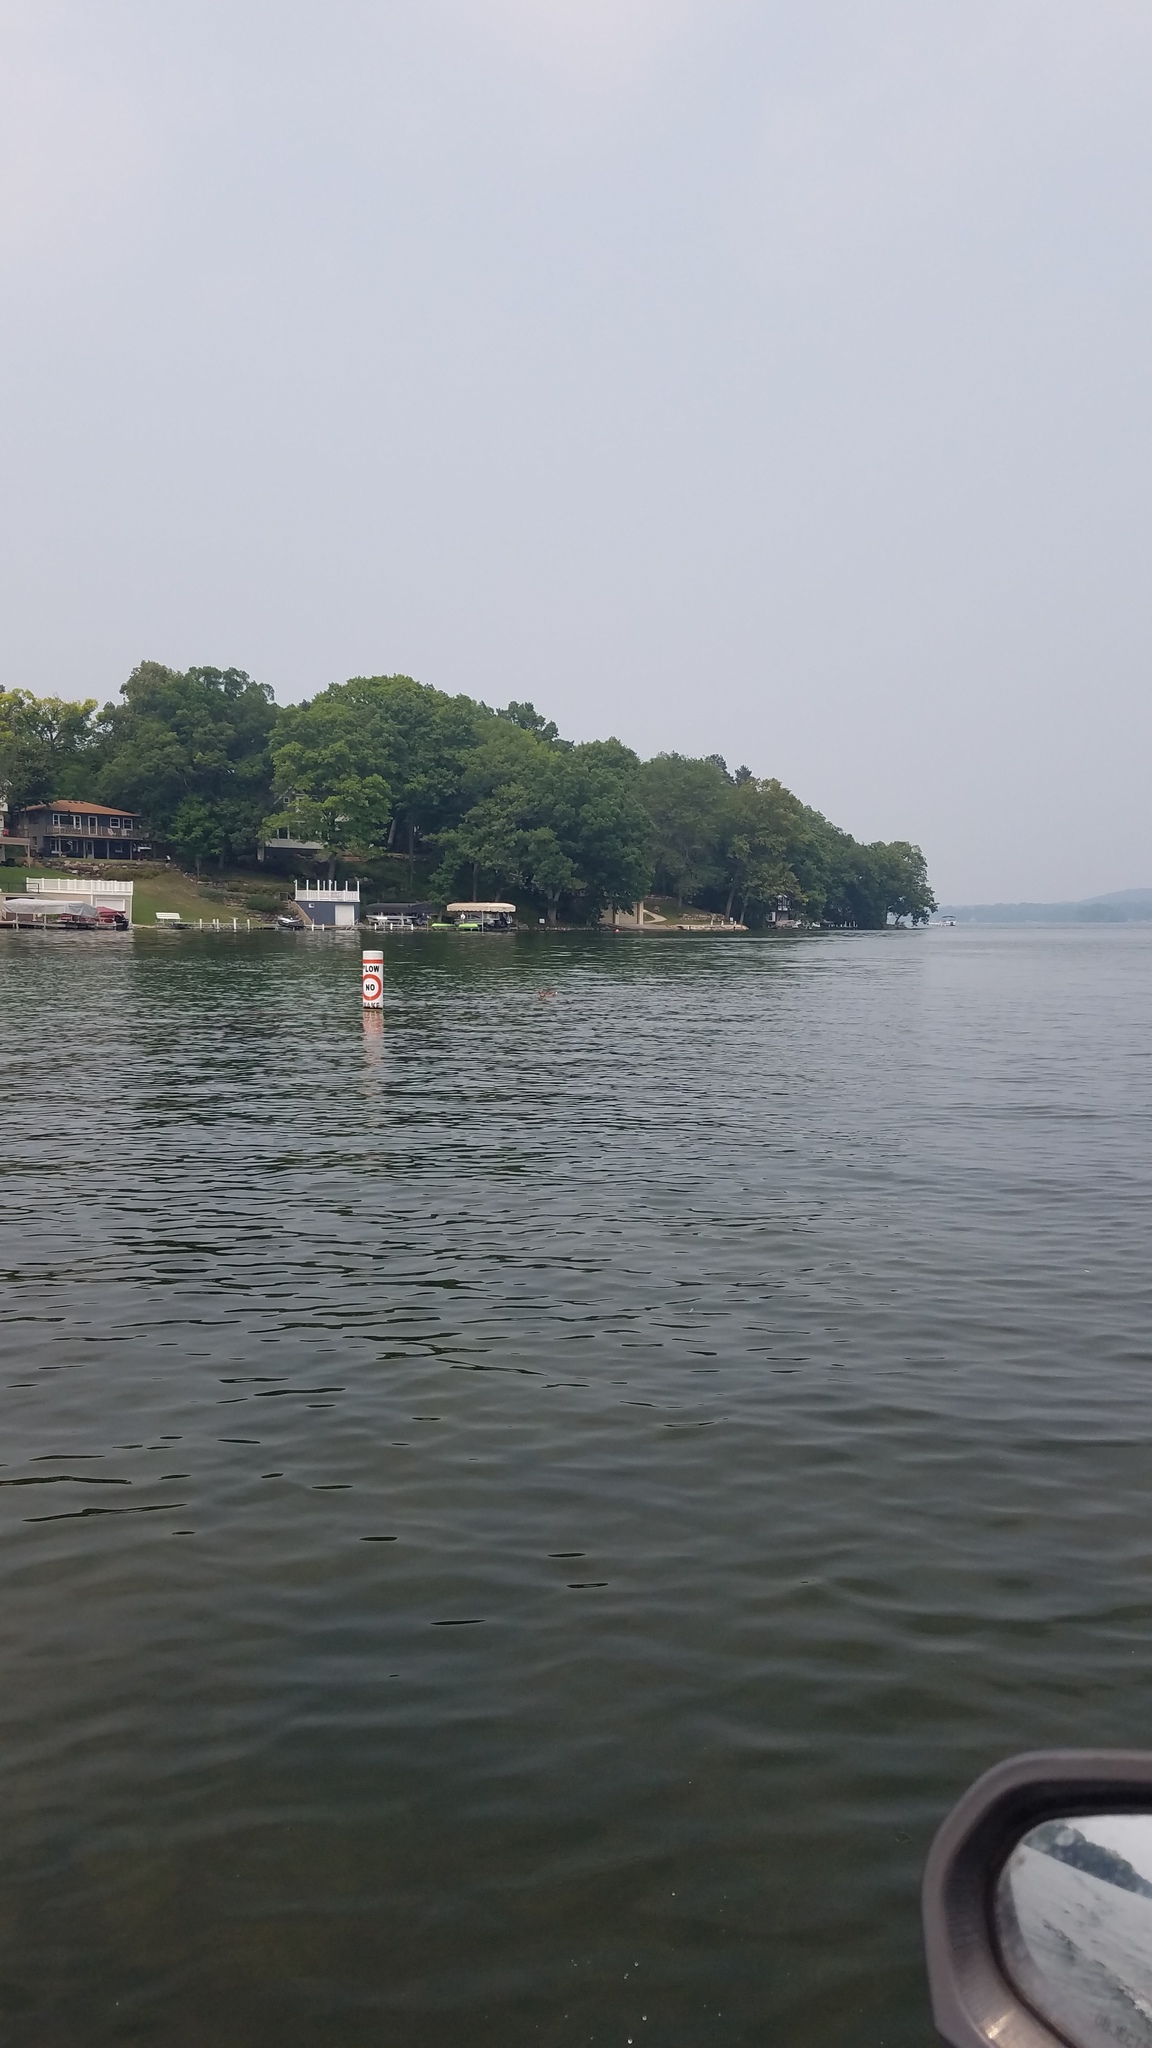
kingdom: Animalia
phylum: Chordata
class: Aves
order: Anseriformes
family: Anatidae
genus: Anas
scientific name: Anas platyrhynchos
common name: Mallard
